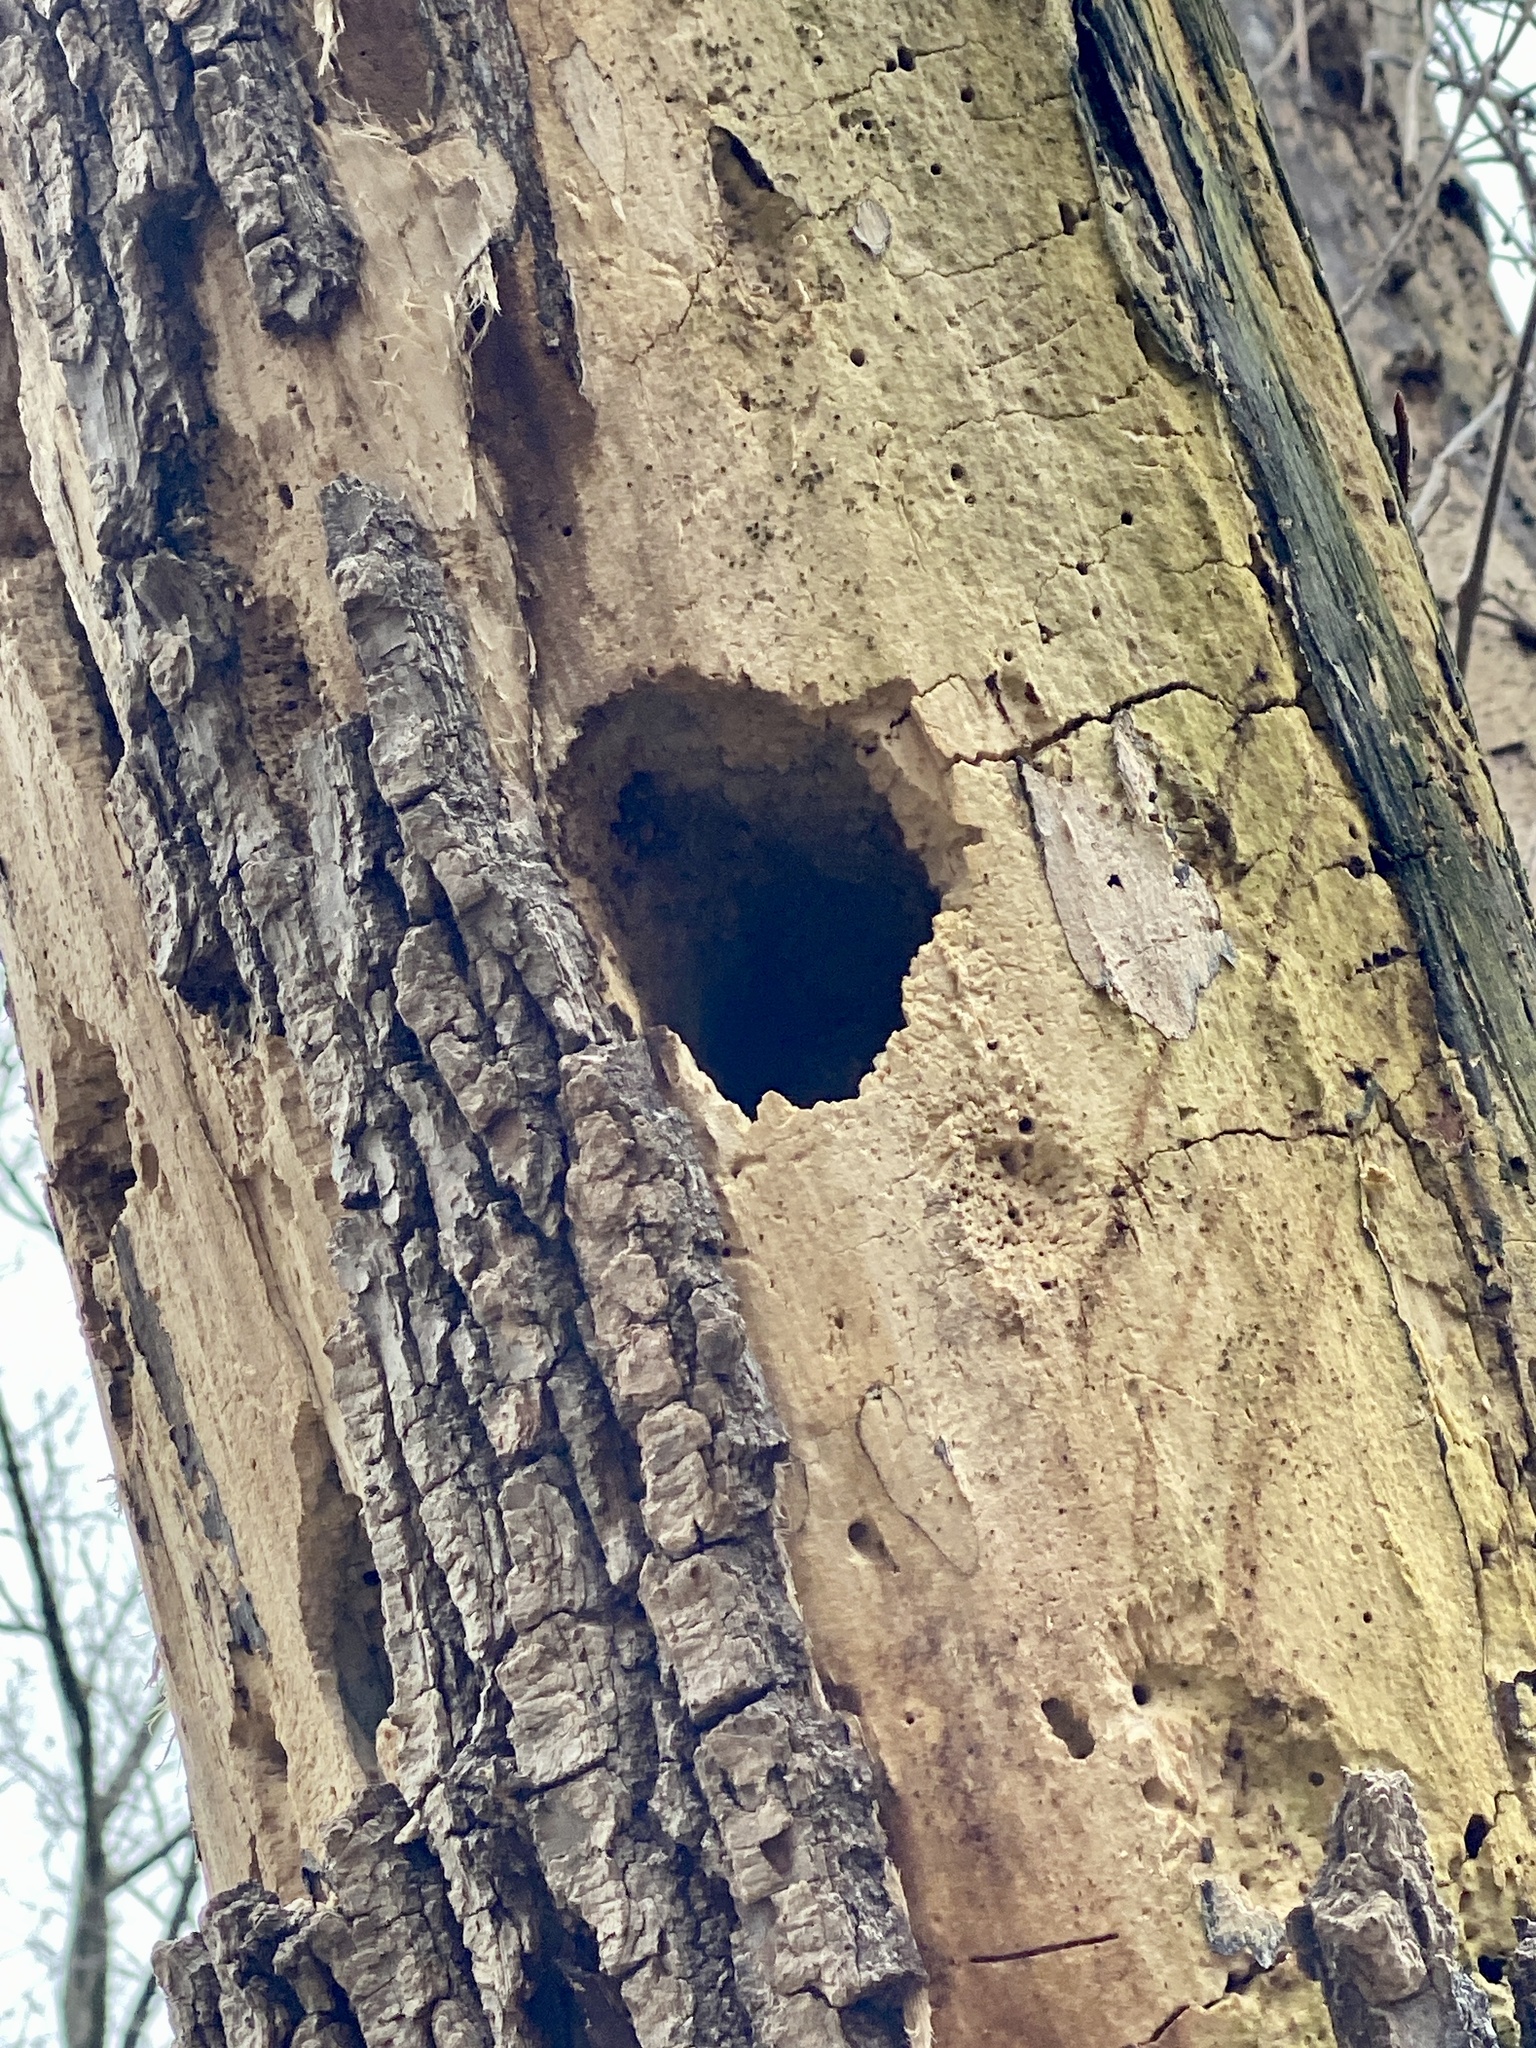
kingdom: Animalia
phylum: Chordata
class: Aves
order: Piciformes
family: Picidae
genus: Dryocopus
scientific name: Dryocopus pileatus
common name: Pileated woodpecker
